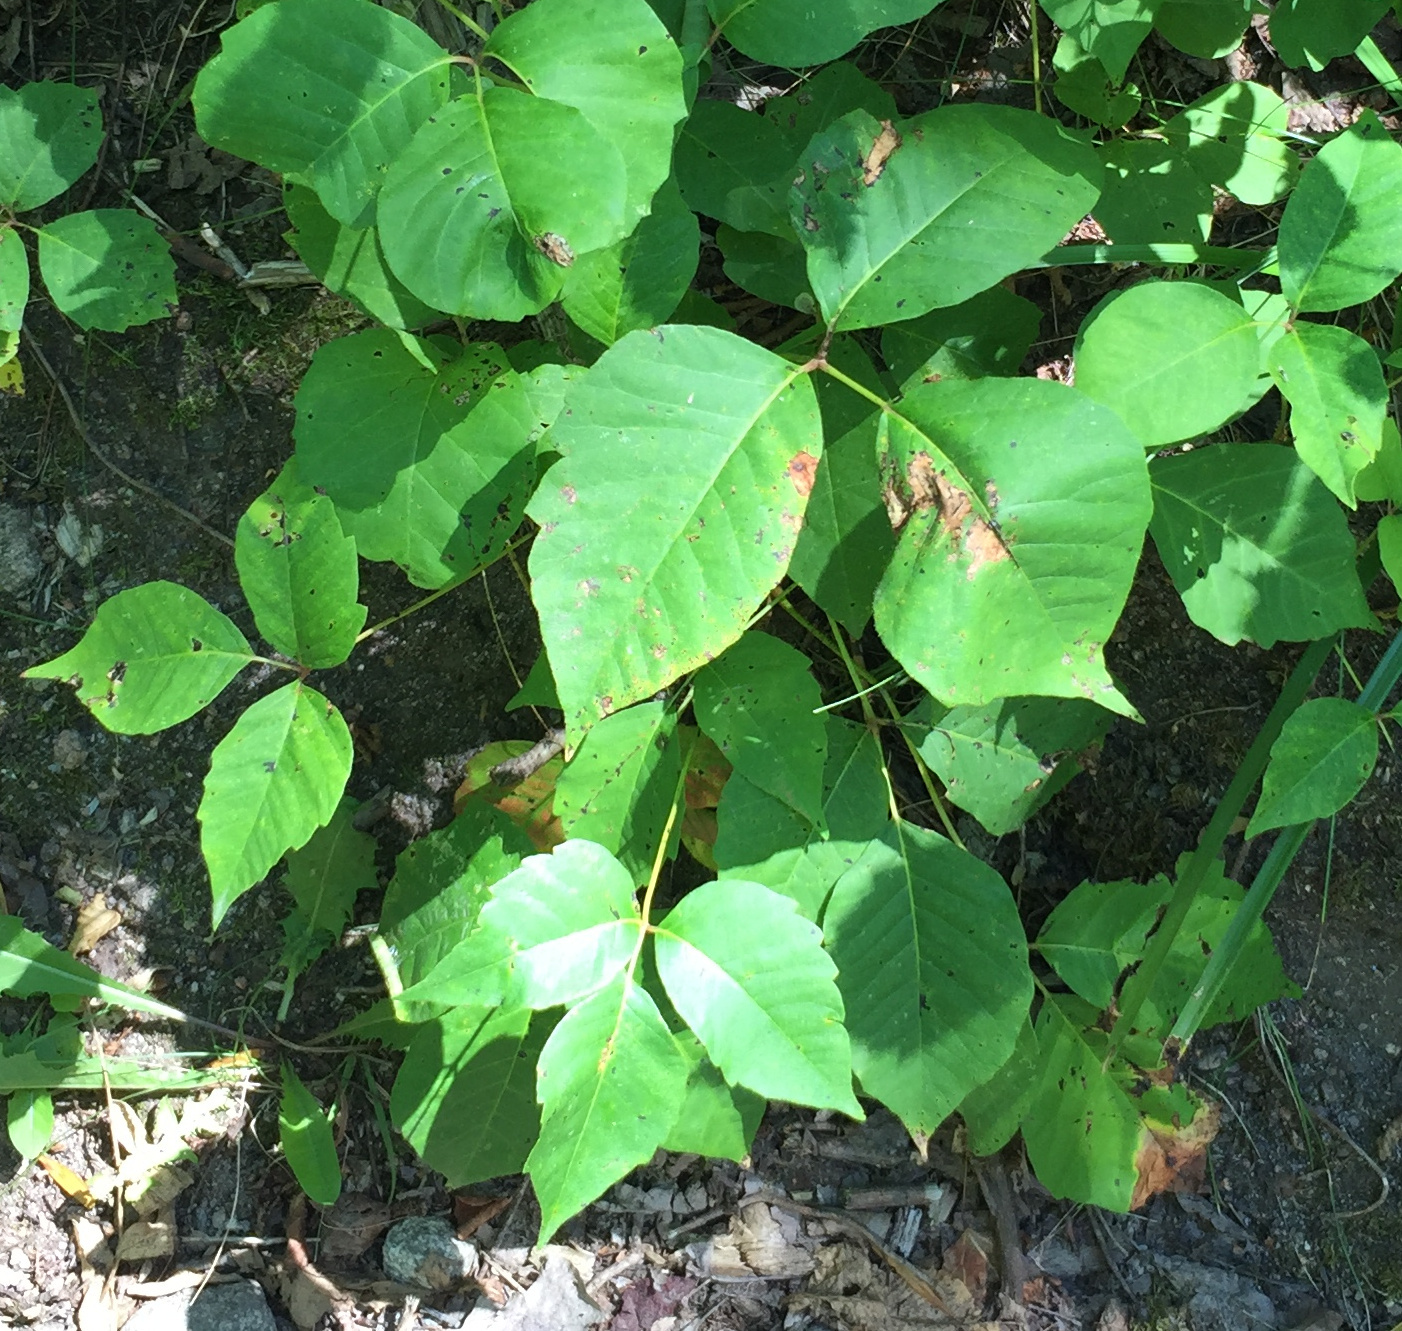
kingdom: Plantae
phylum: Tracheophyta
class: Magnoliopsida
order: Sapindales
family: Anacardiaceae
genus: Toxicodendron
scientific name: Toxicodendron rydbergii
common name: Rydberg's poison-ivy
